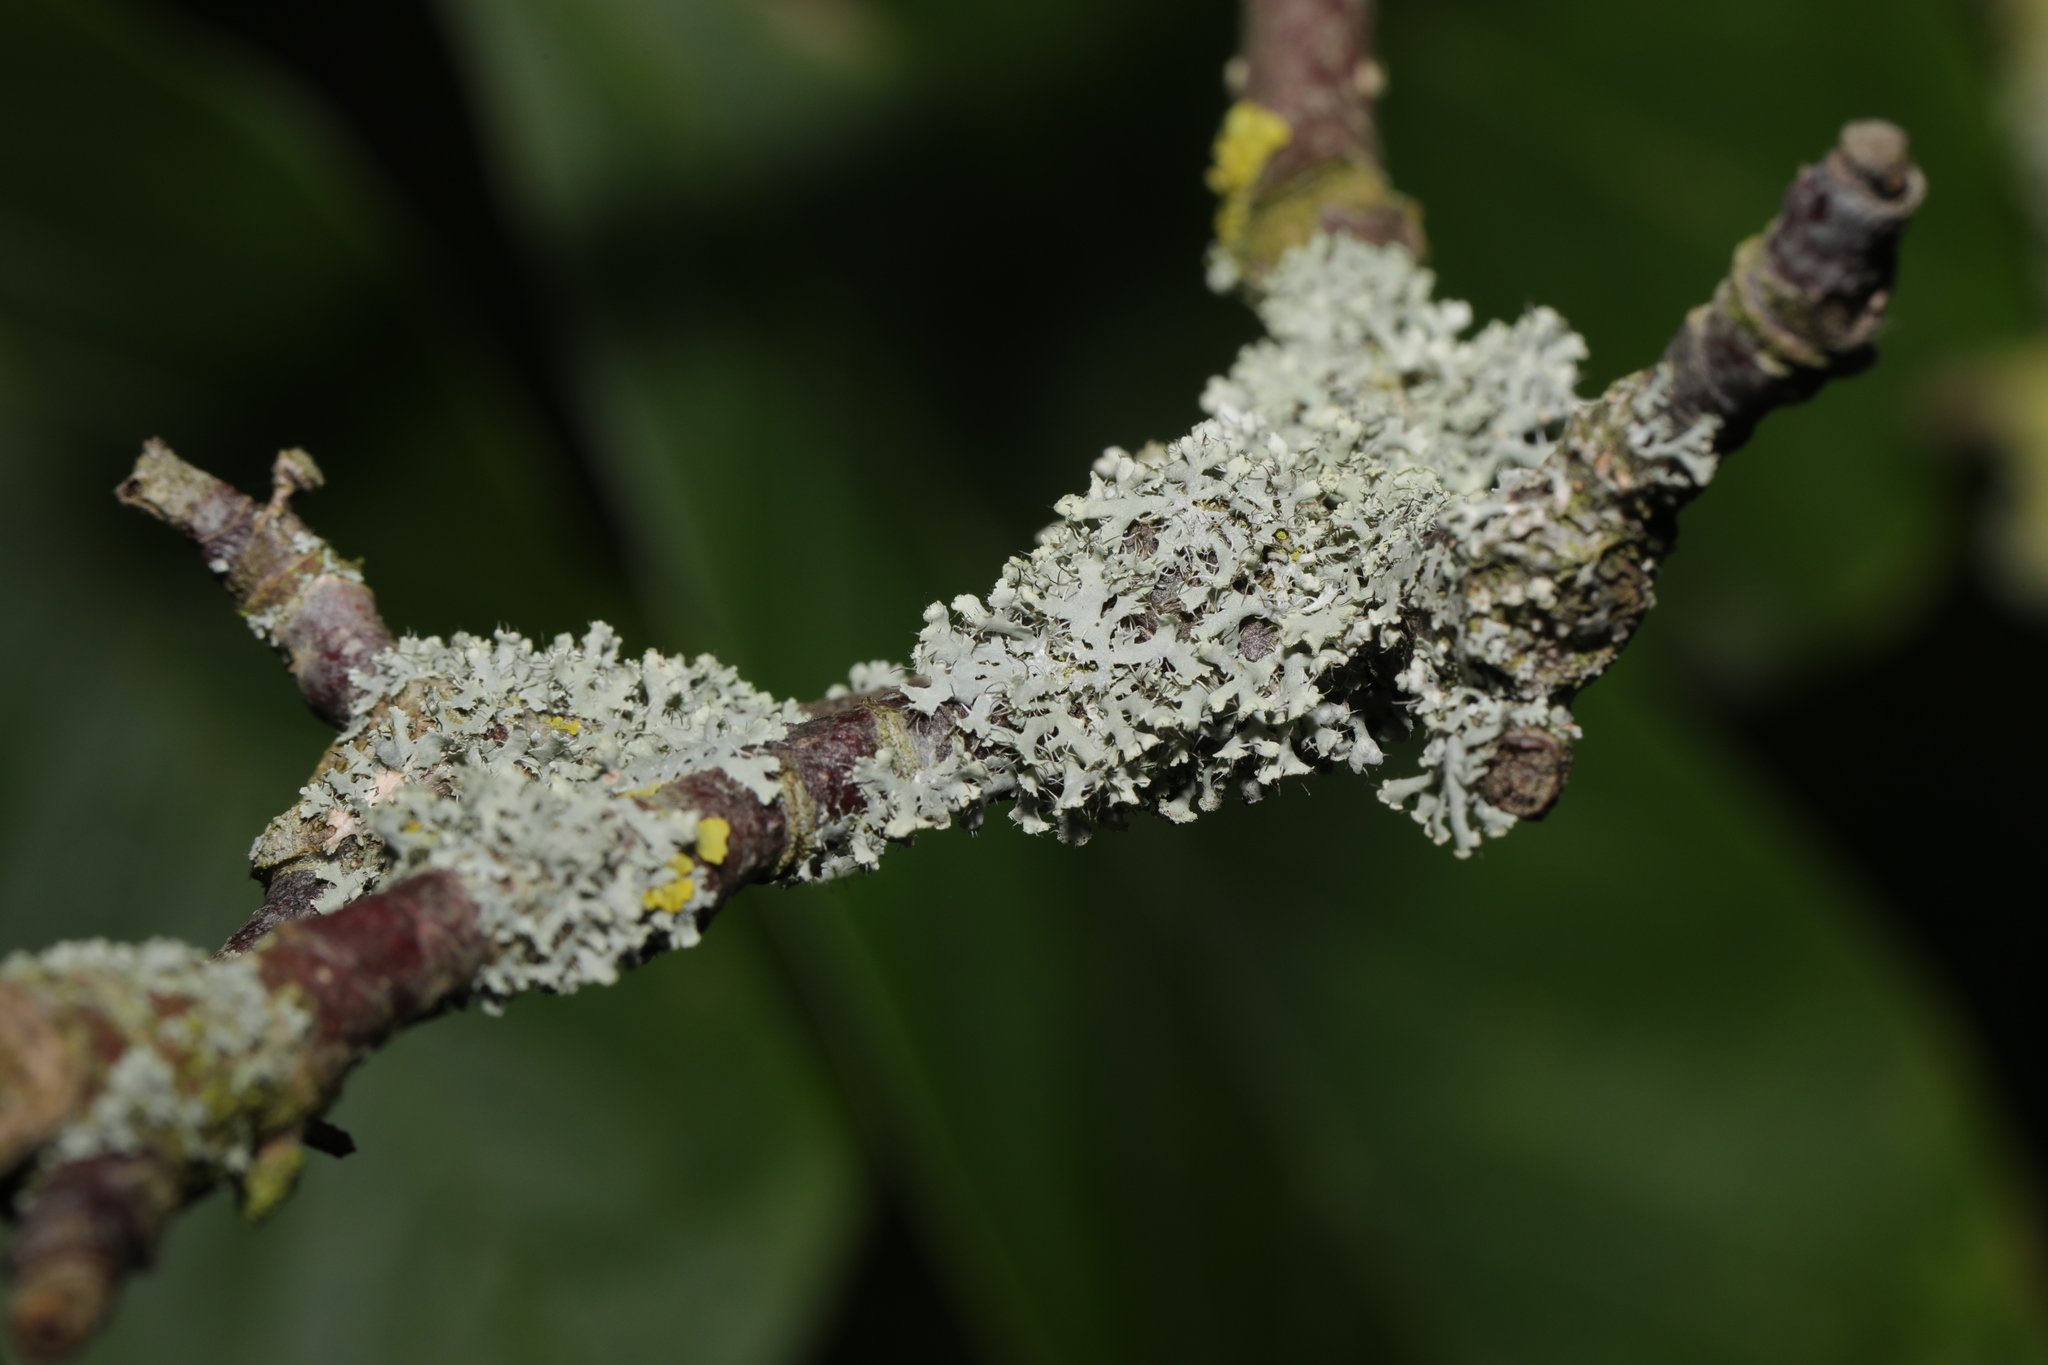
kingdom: Fungi
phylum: Ascomycota
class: Lecanoromycetes
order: Caliciales
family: Physciaceae
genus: Physcia
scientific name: Physcia tenella
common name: Fringed rosette lichen
